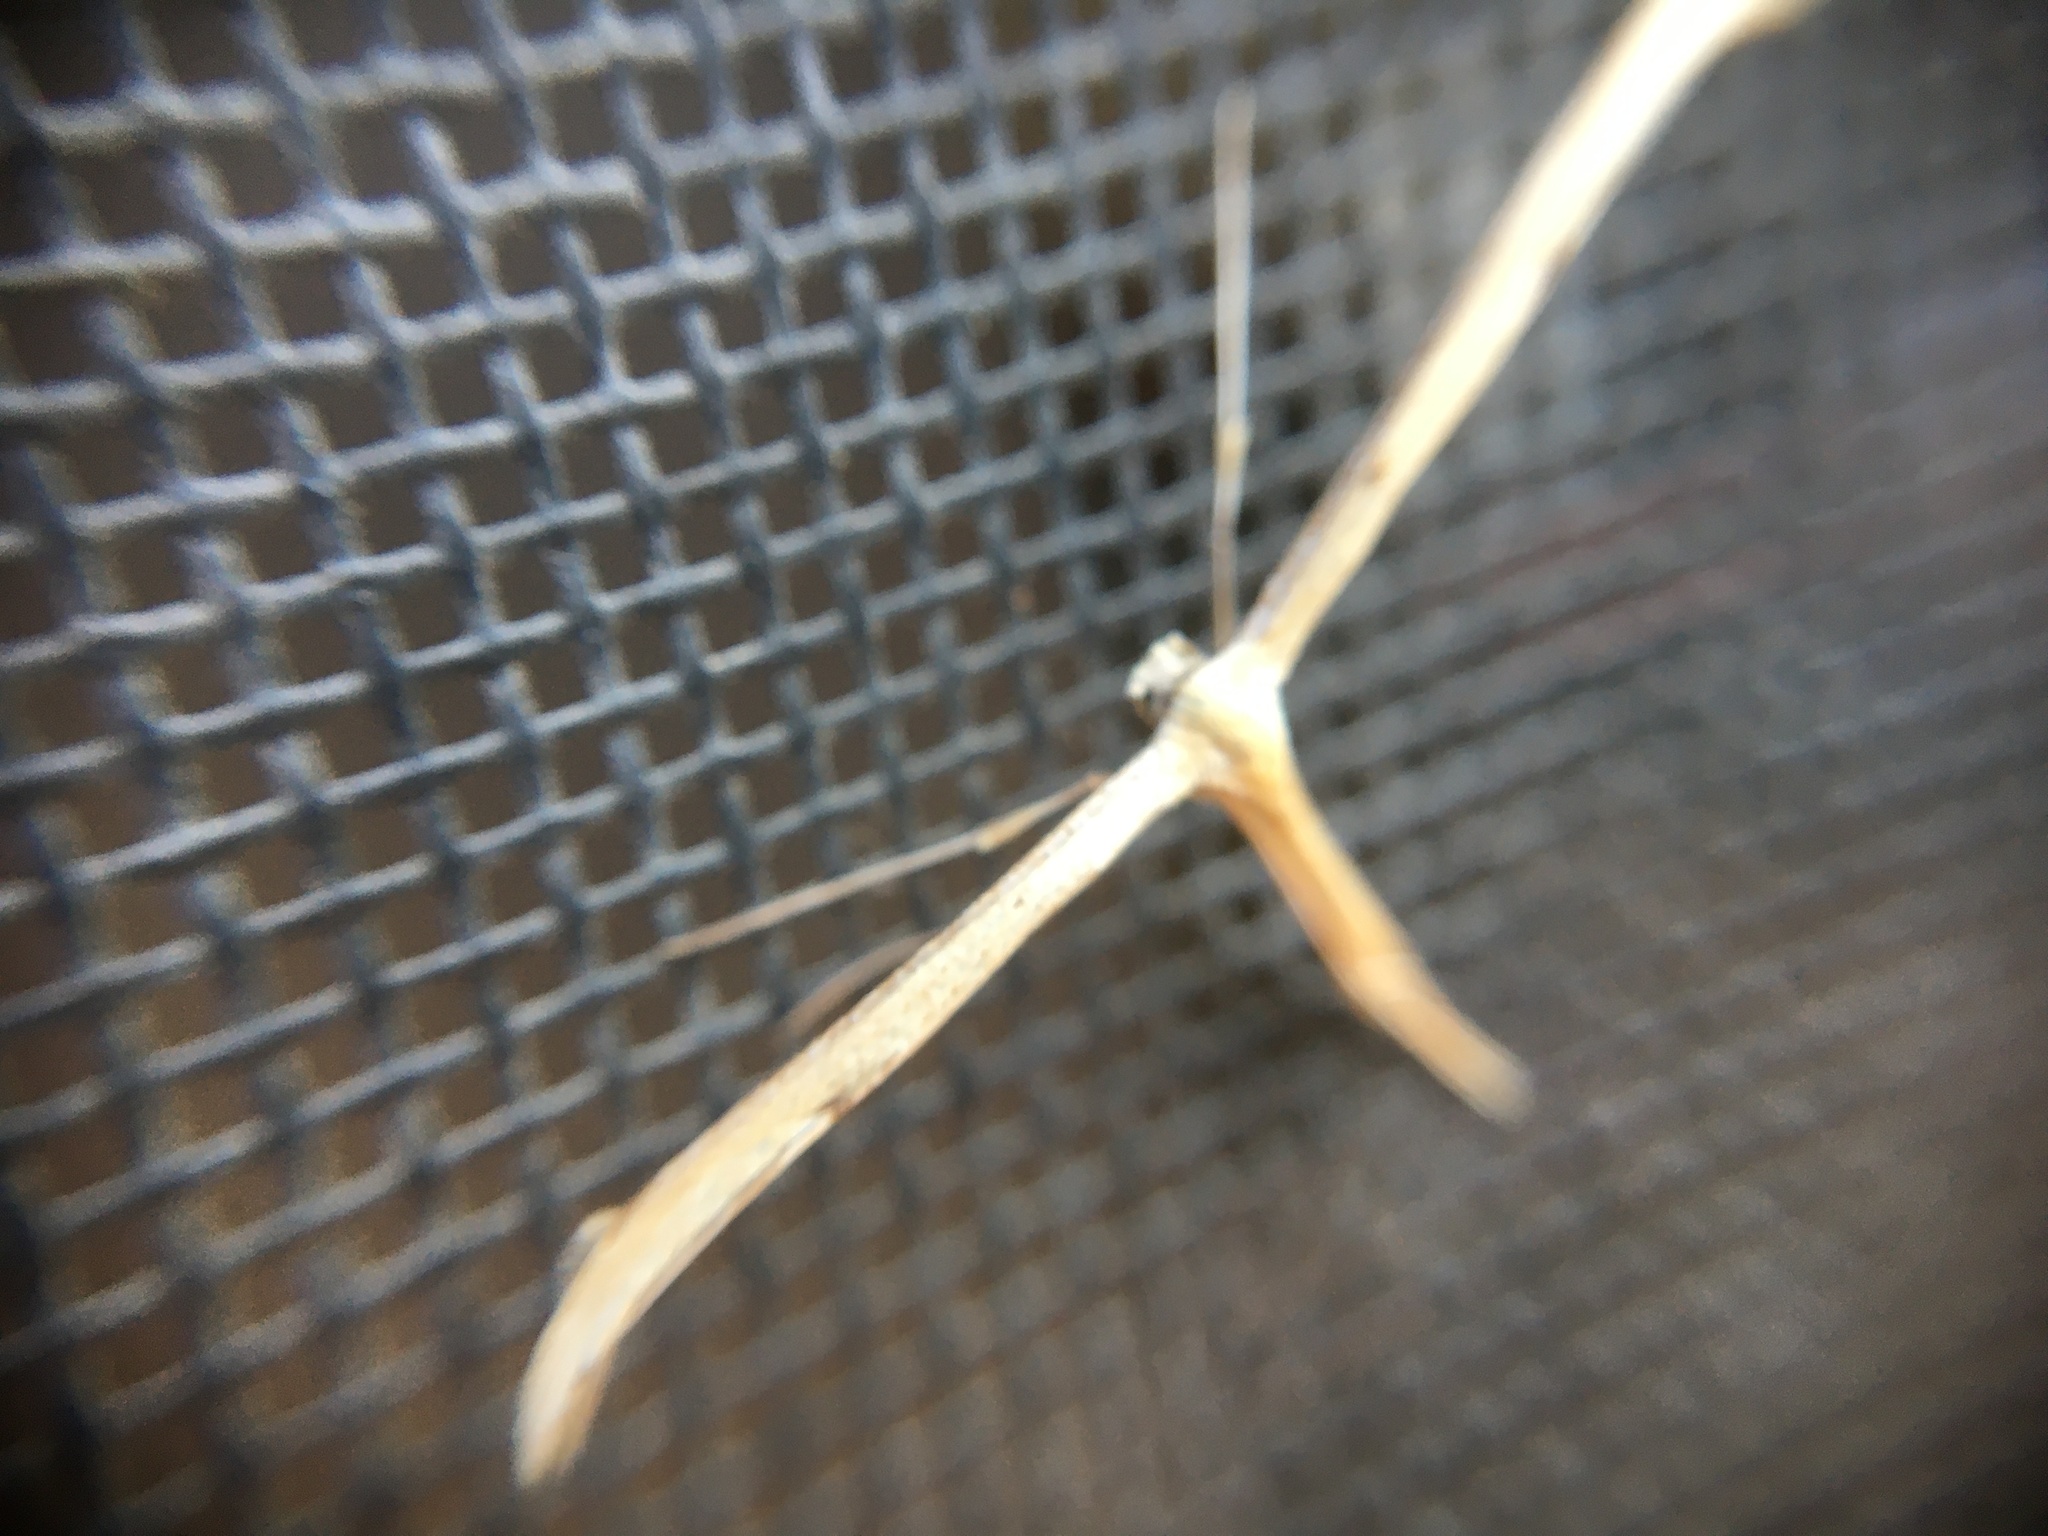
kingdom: Animalia
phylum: Arthropoda
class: Insecta
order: Lepidoptera
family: Pterophoridae
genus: Emmelina
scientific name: Emmelina monodactyla
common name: Common plume
